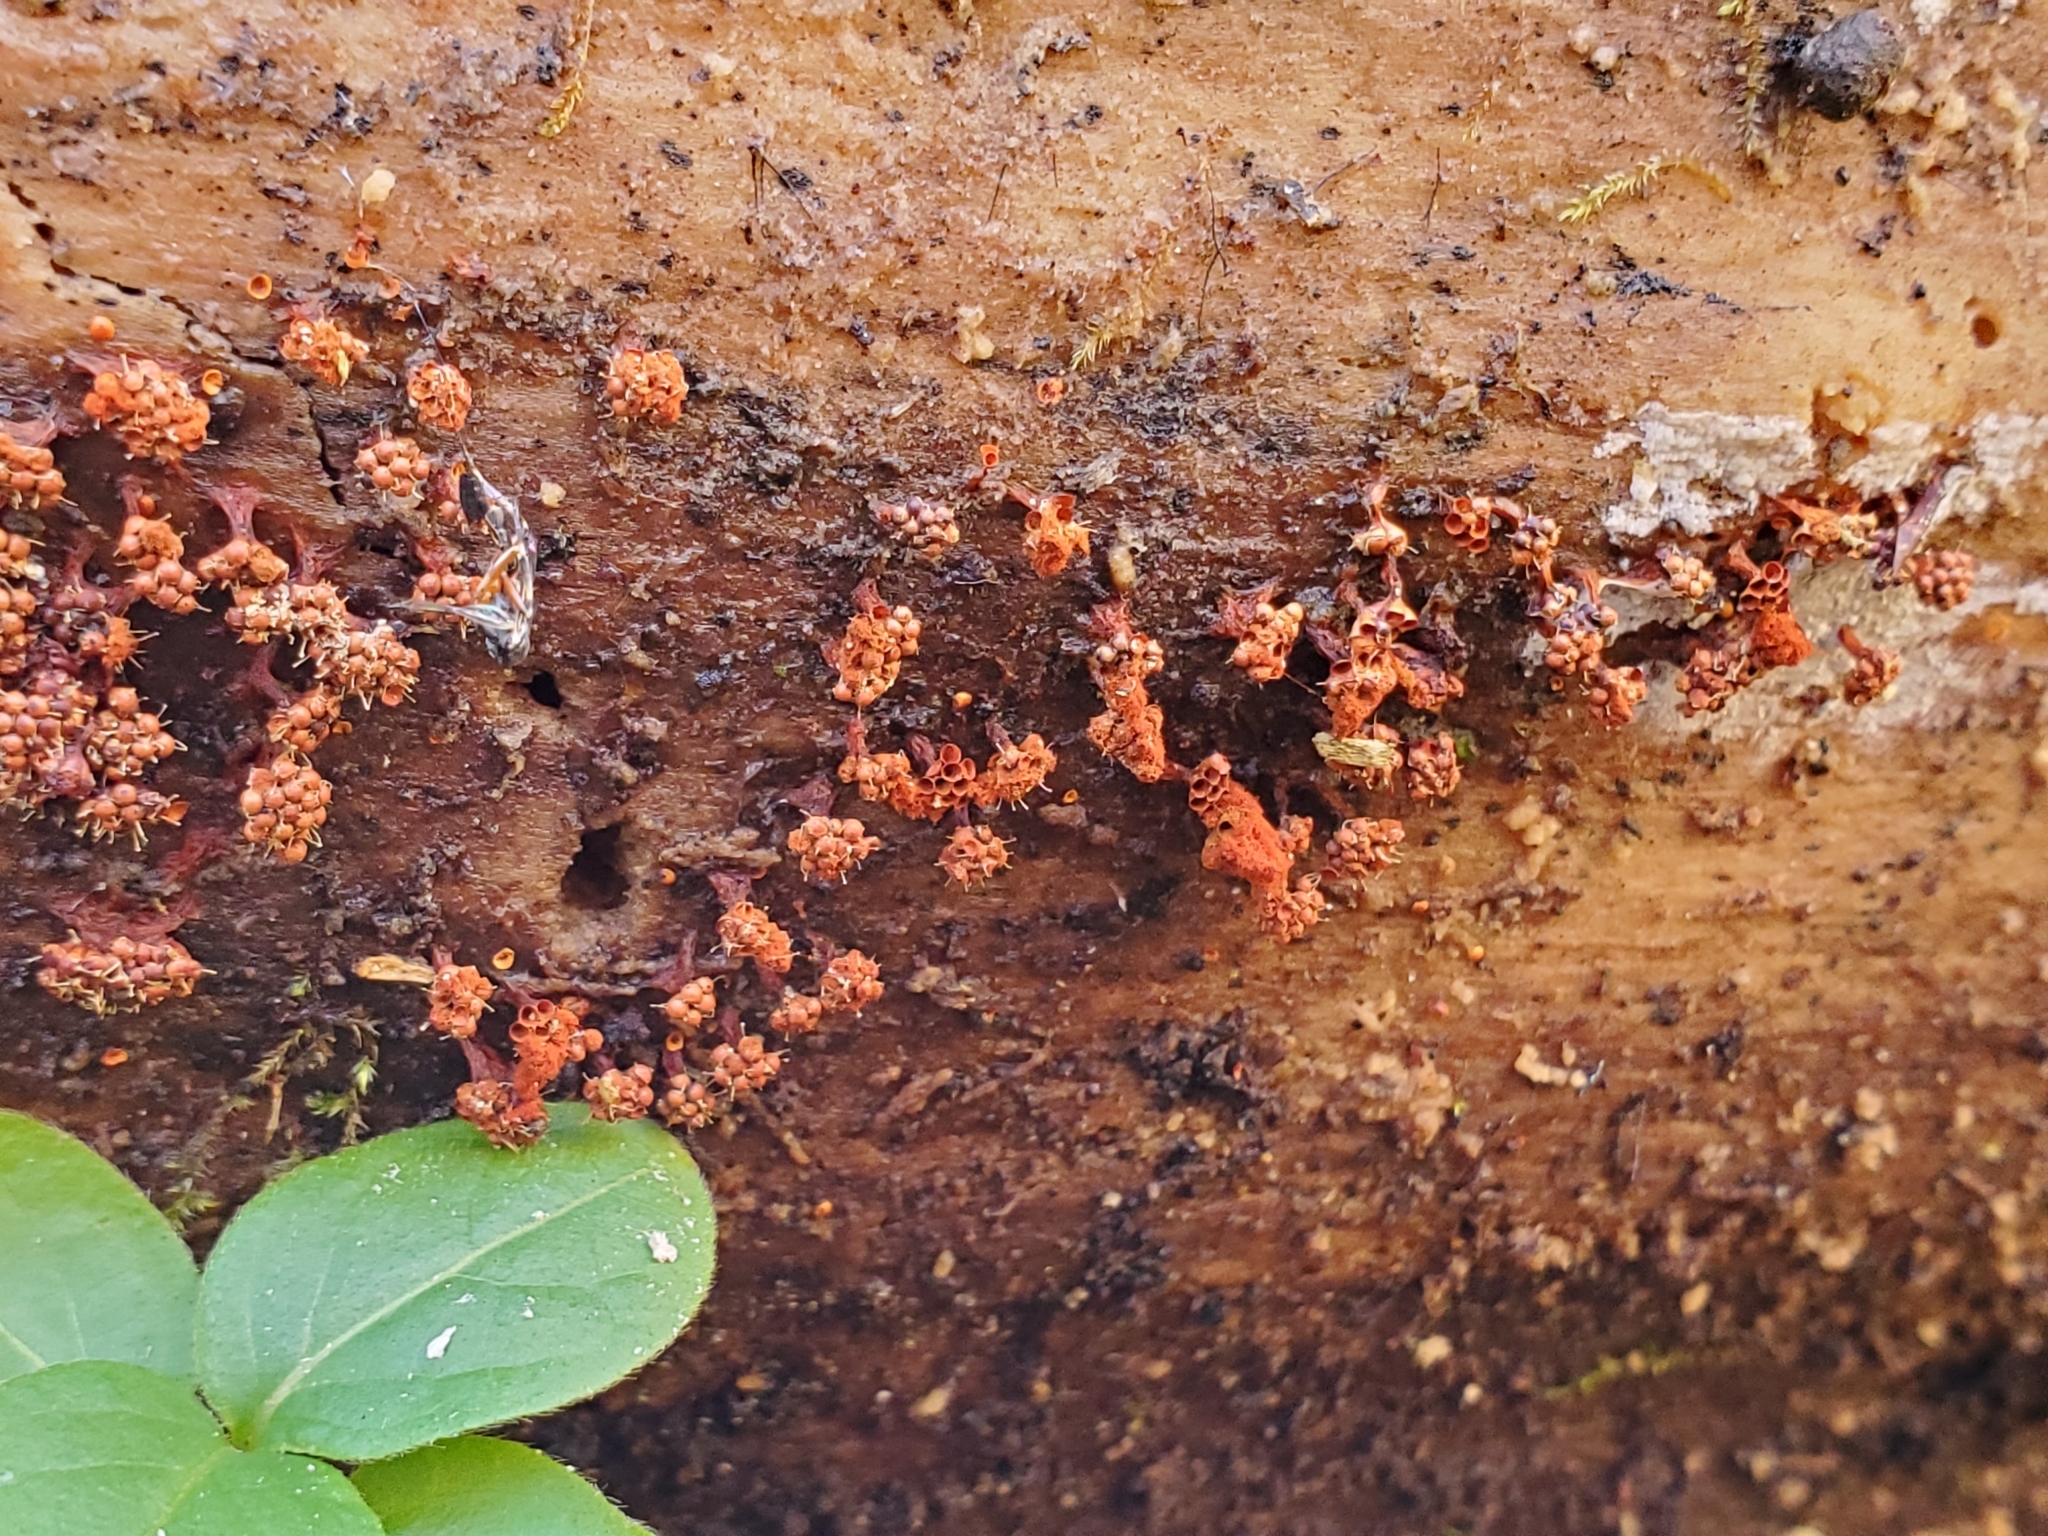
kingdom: Fungi
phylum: Ascomycota
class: Sordariomycetes
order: Hypocreales
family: Ophiocordycipitaceae
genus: Polycephalomyces
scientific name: Polycephalomyces tomentosus
